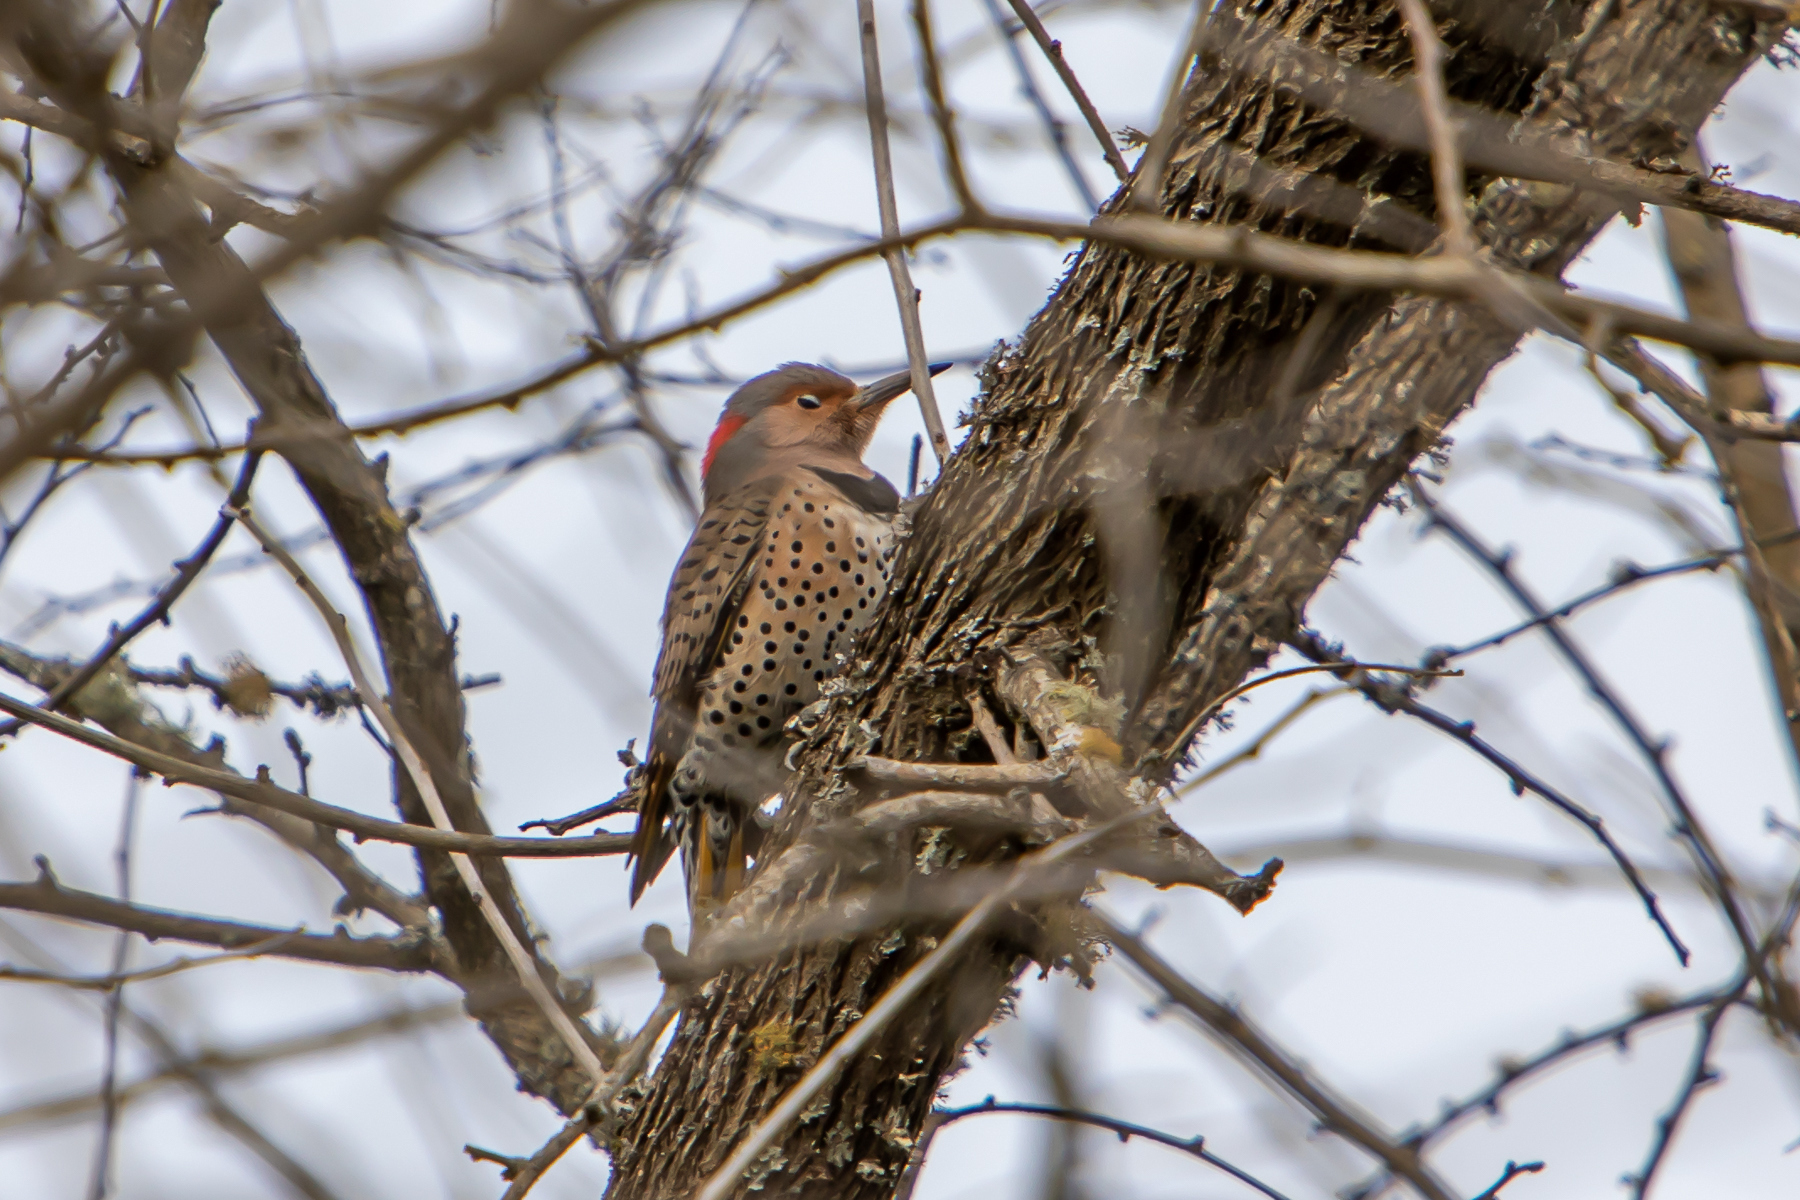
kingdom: Animalia
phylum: Chordata
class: Aves
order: Piciformes
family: Picidae
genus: Colaptes
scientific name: Colaptes auratus
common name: Northern flicker
